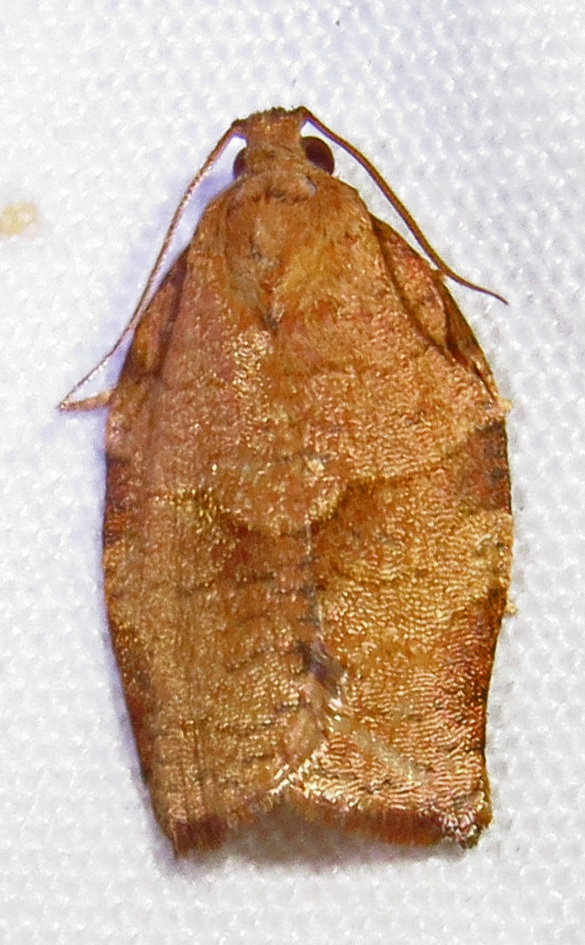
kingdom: Animalia
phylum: Arthropoda
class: Insecta
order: Lepidoptera
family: Tortricidae
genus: Choristoneura
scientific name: Choristoneura rosaceana
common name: Oblique-banded leafroller moth
